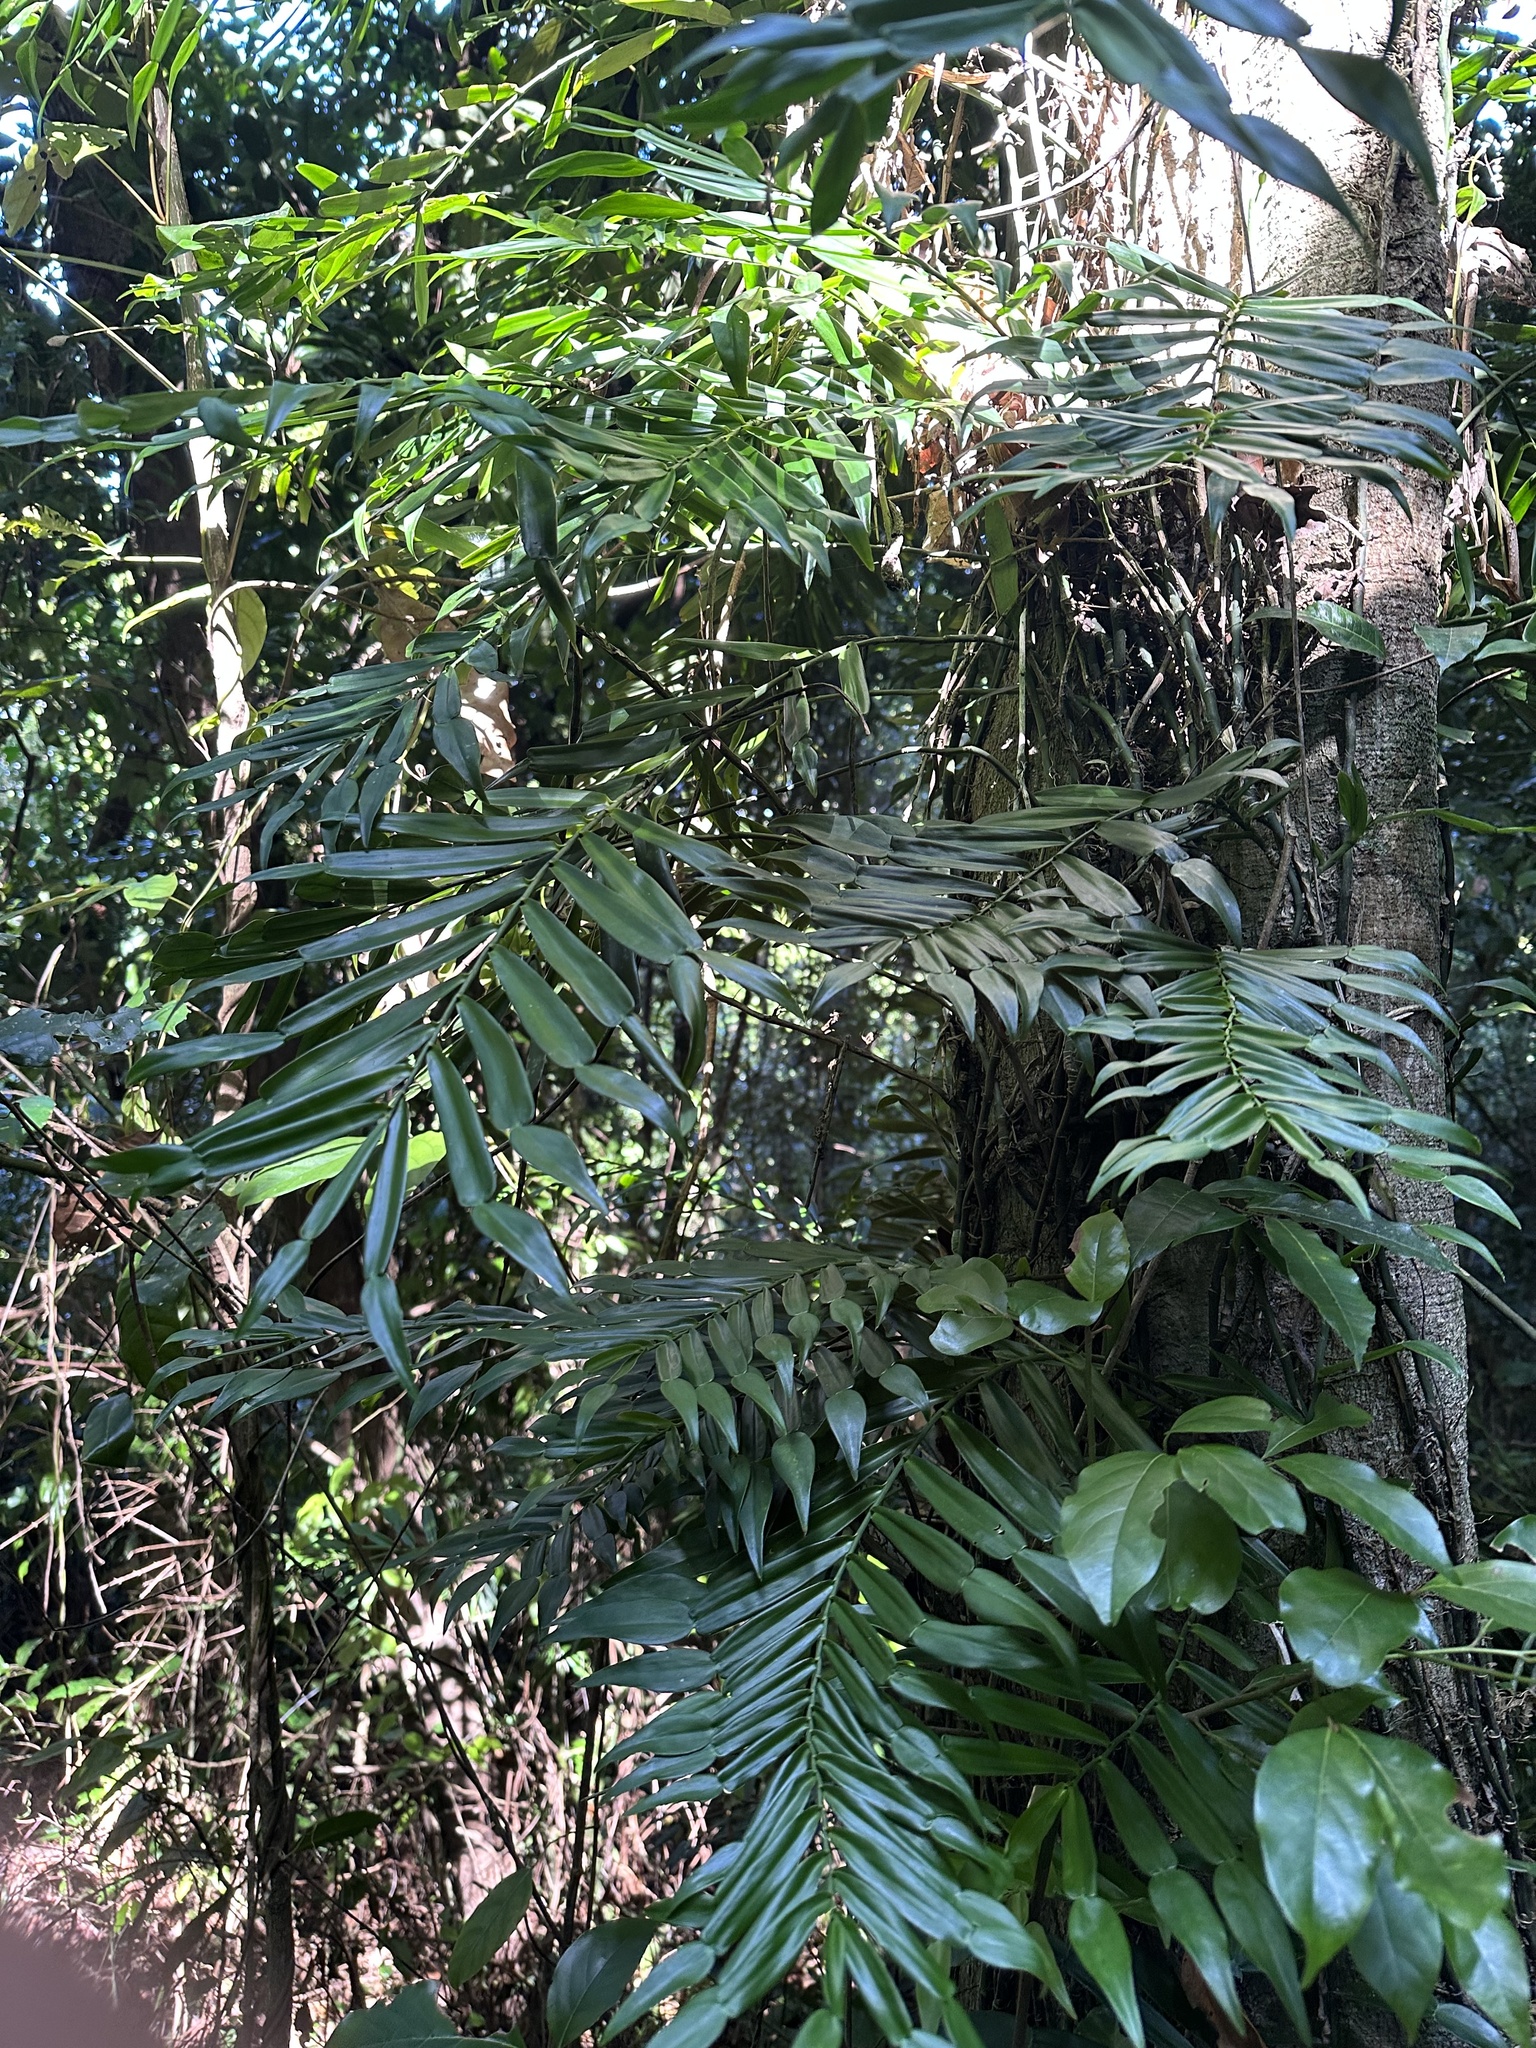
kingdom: Plantae
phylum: Tracheophyta
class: Liliopsida
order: Alismatales
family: Araceae
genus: Pothos
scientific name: Pothos longipes
